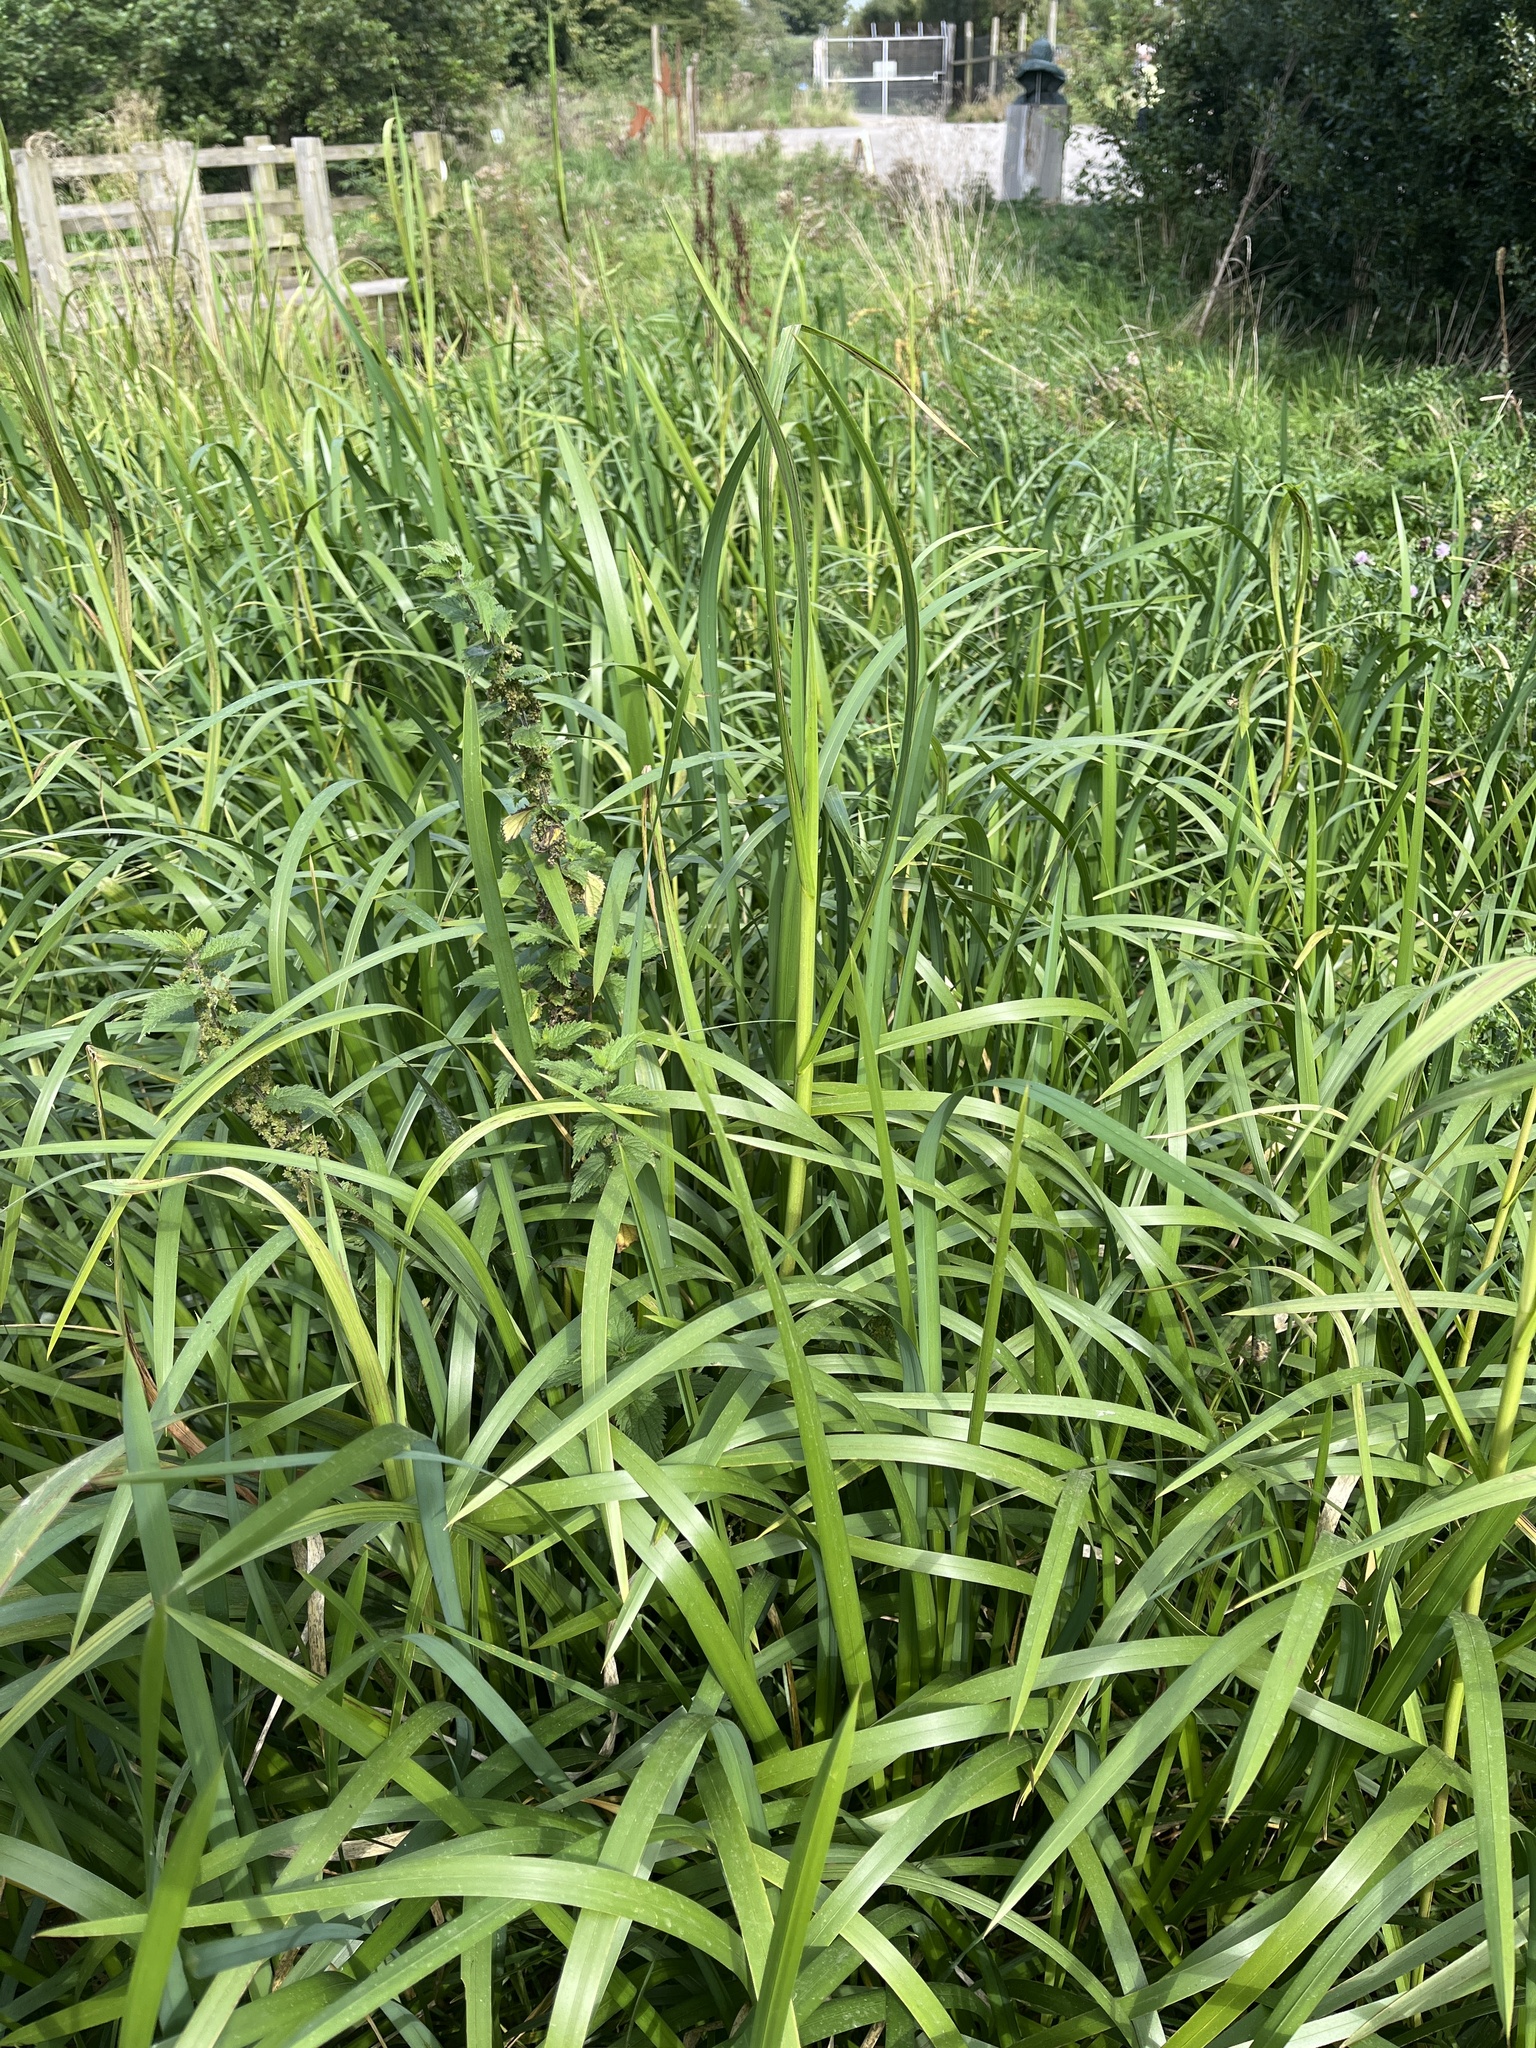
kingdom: Plantae
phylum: Tracheophyta
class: Liliopsida
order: Poales
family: Poaceae
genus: Glyceria
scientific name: Glyceria maxima
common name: Reed mannagrass
